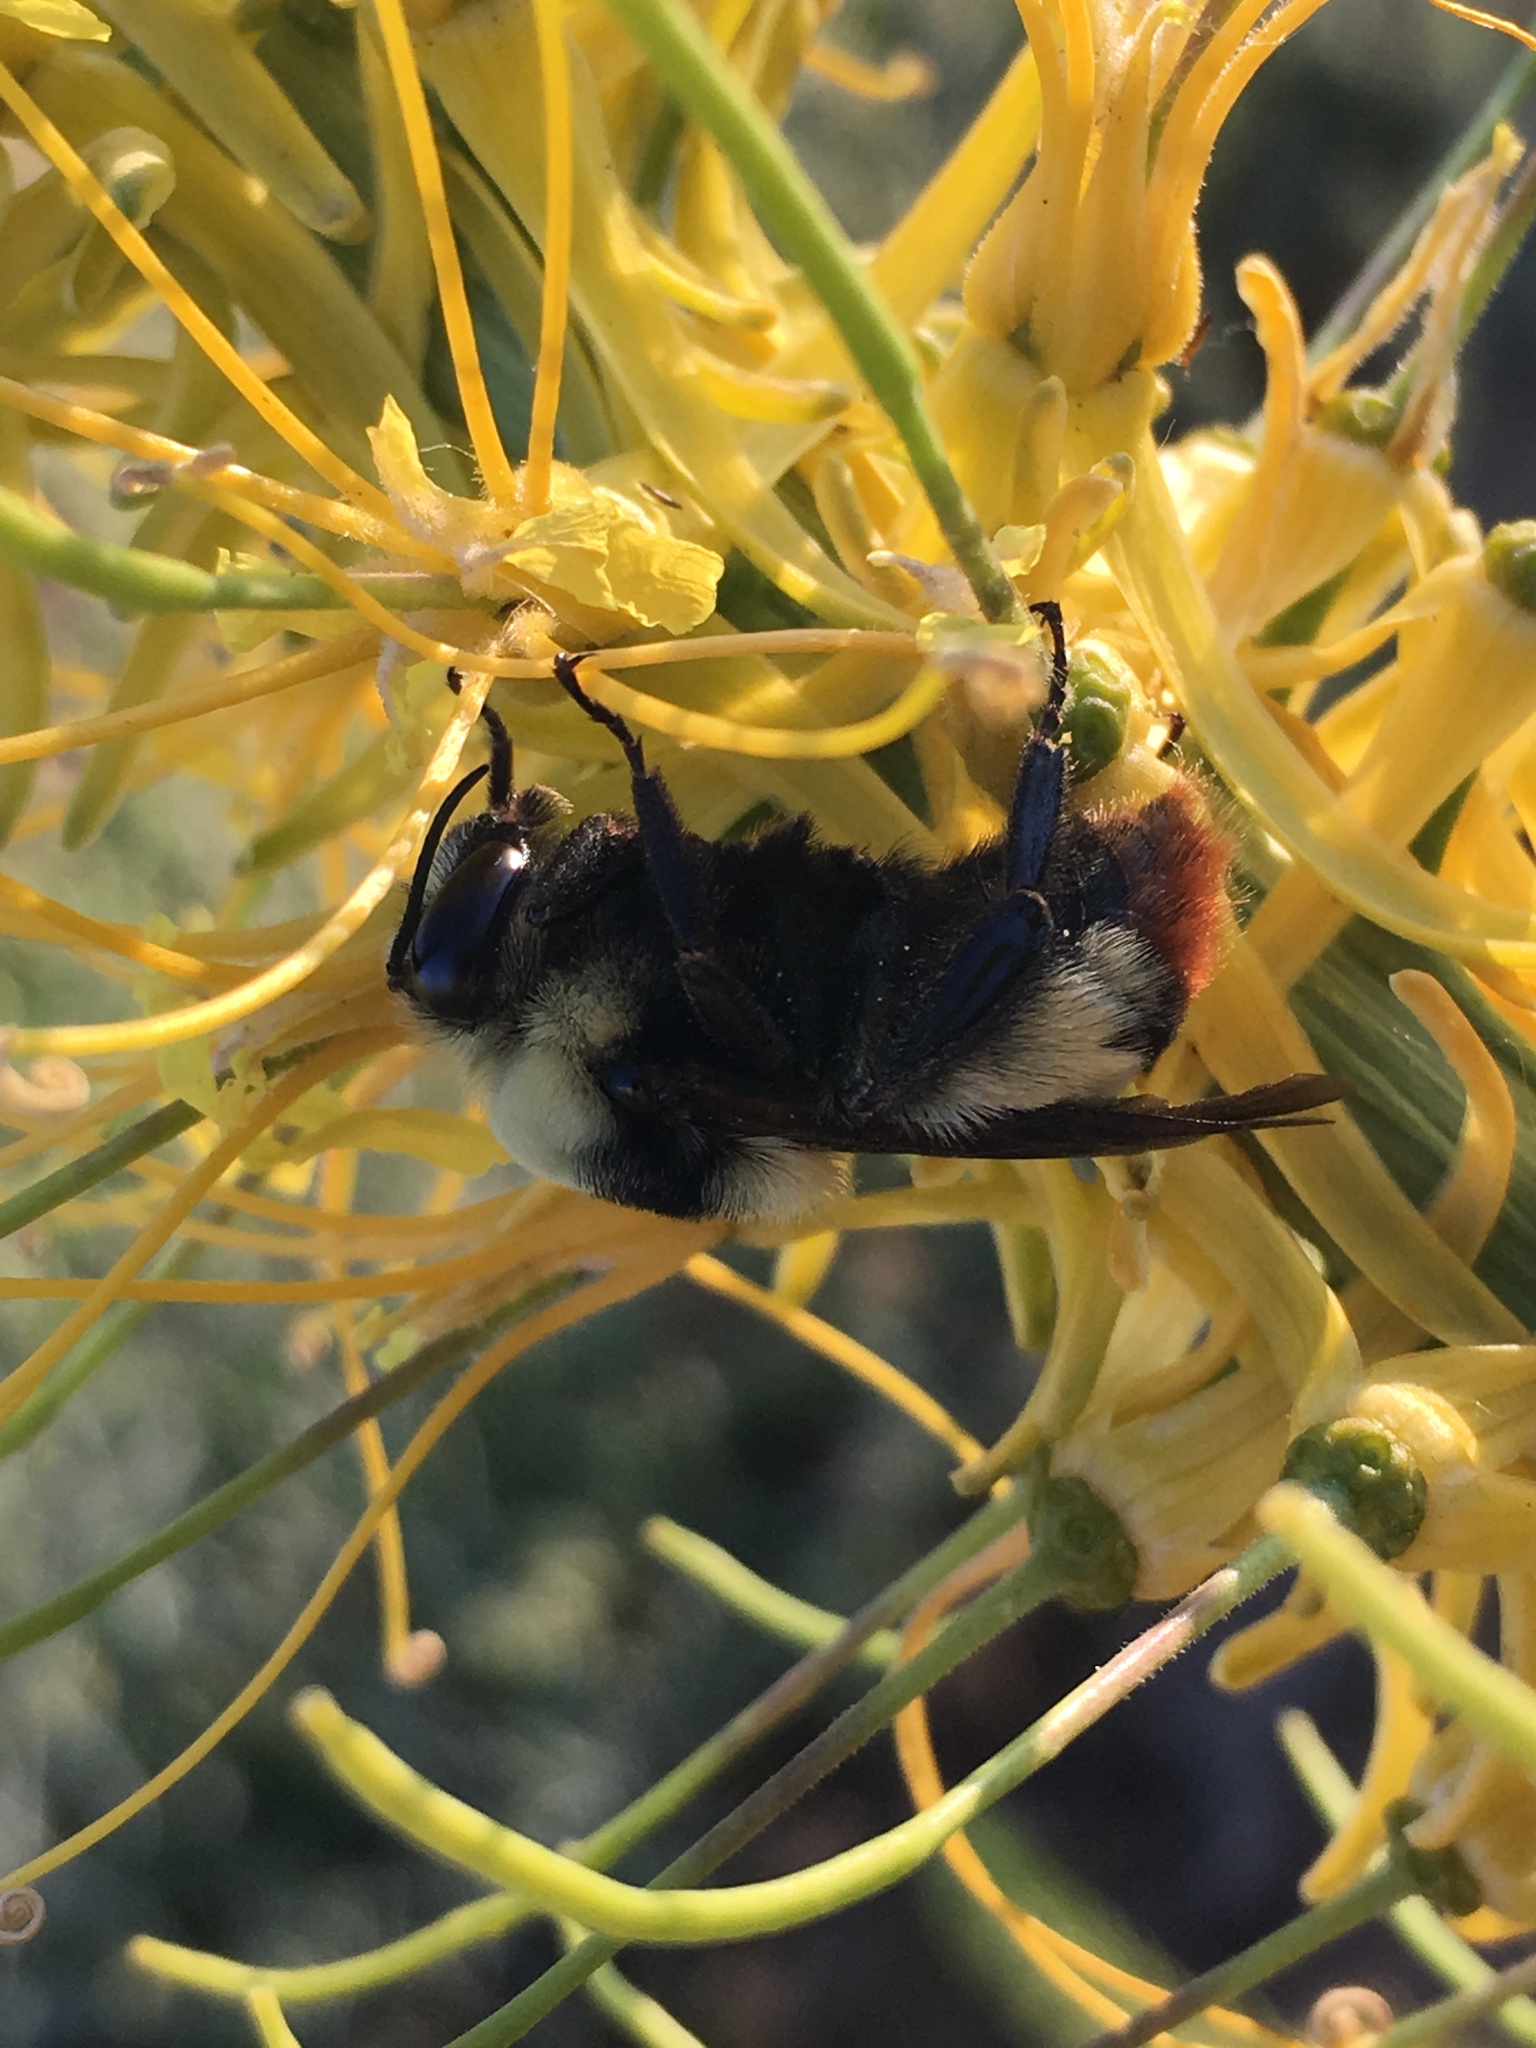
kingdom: Animalia
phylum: Arthropoda
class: Insecta
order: Hymenoptera
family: Apidae
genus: Bombus
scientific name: Bombus crotchii
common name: Crotch bumble bee
